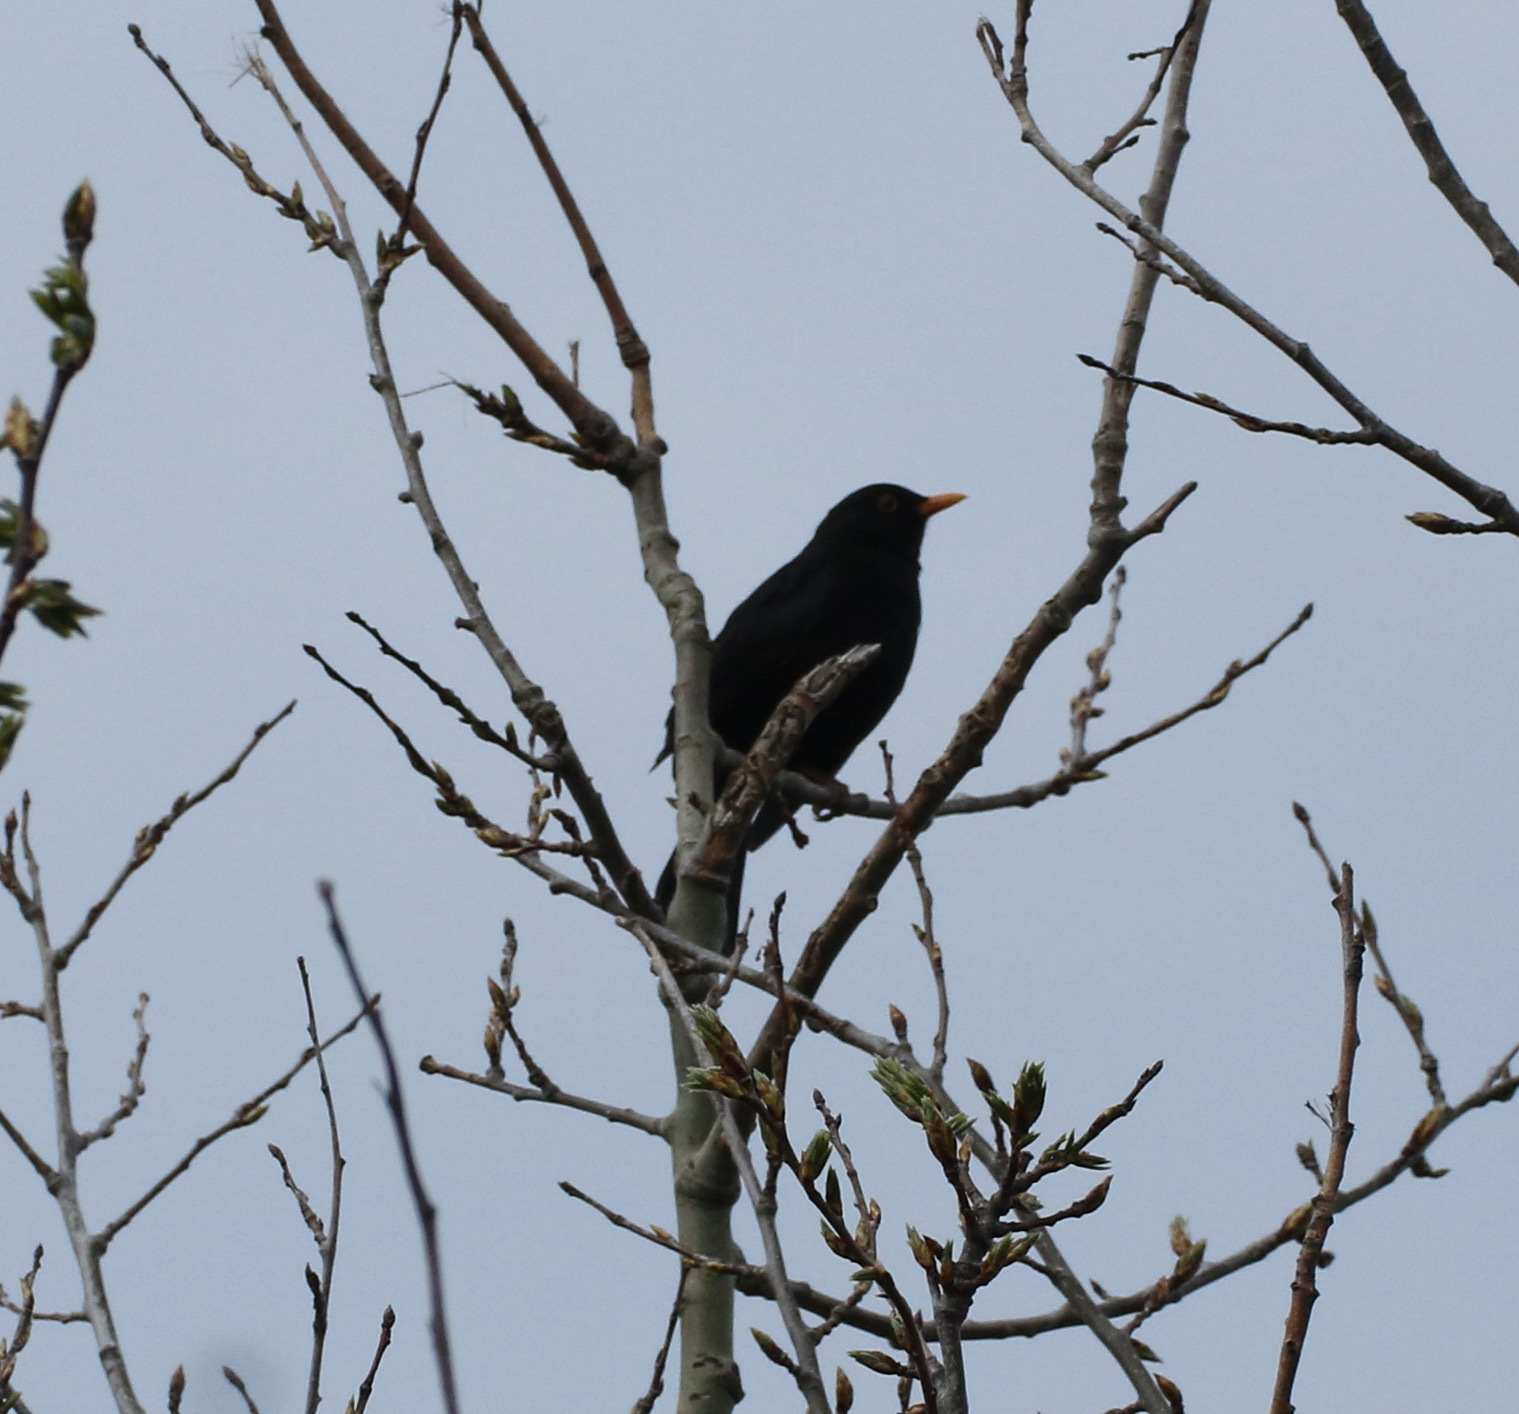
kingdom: Animalia
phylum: Chordata
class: Aves
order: Passeriformes
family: Turdidae
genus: Turdus
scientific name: Turdus merula
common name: Common blackbird
